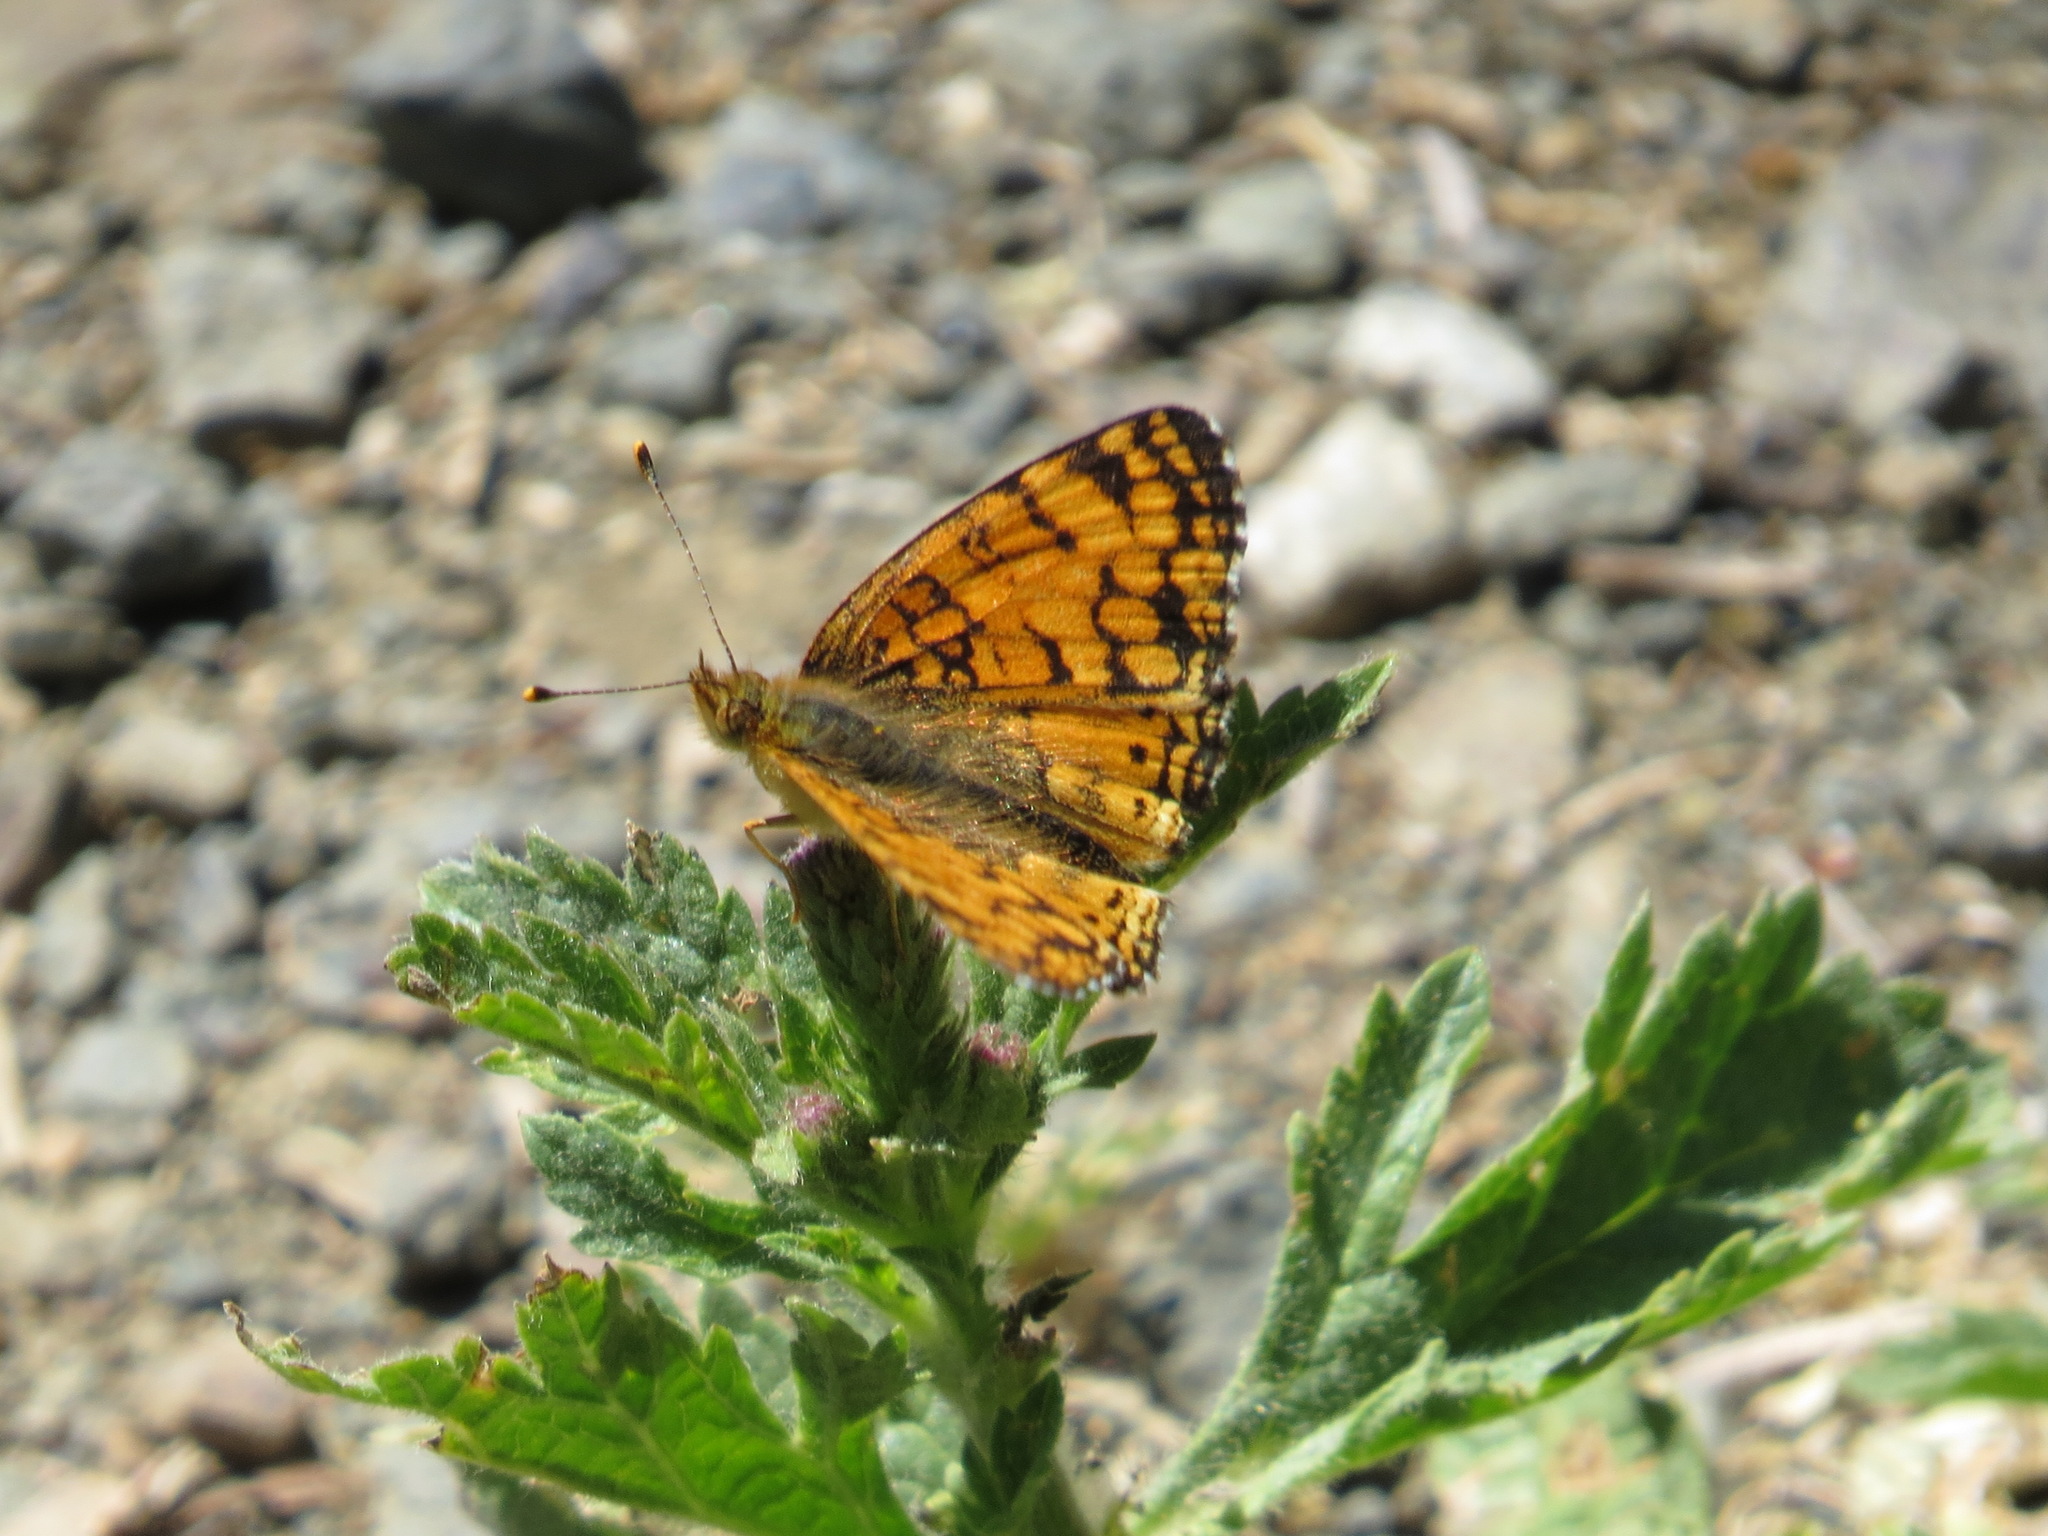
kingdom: Animalia
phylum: Arthropoda
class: Insecta
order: Lepidoptera
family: Nymphalidae
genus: Eresia
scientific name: Eresia aveyrona
